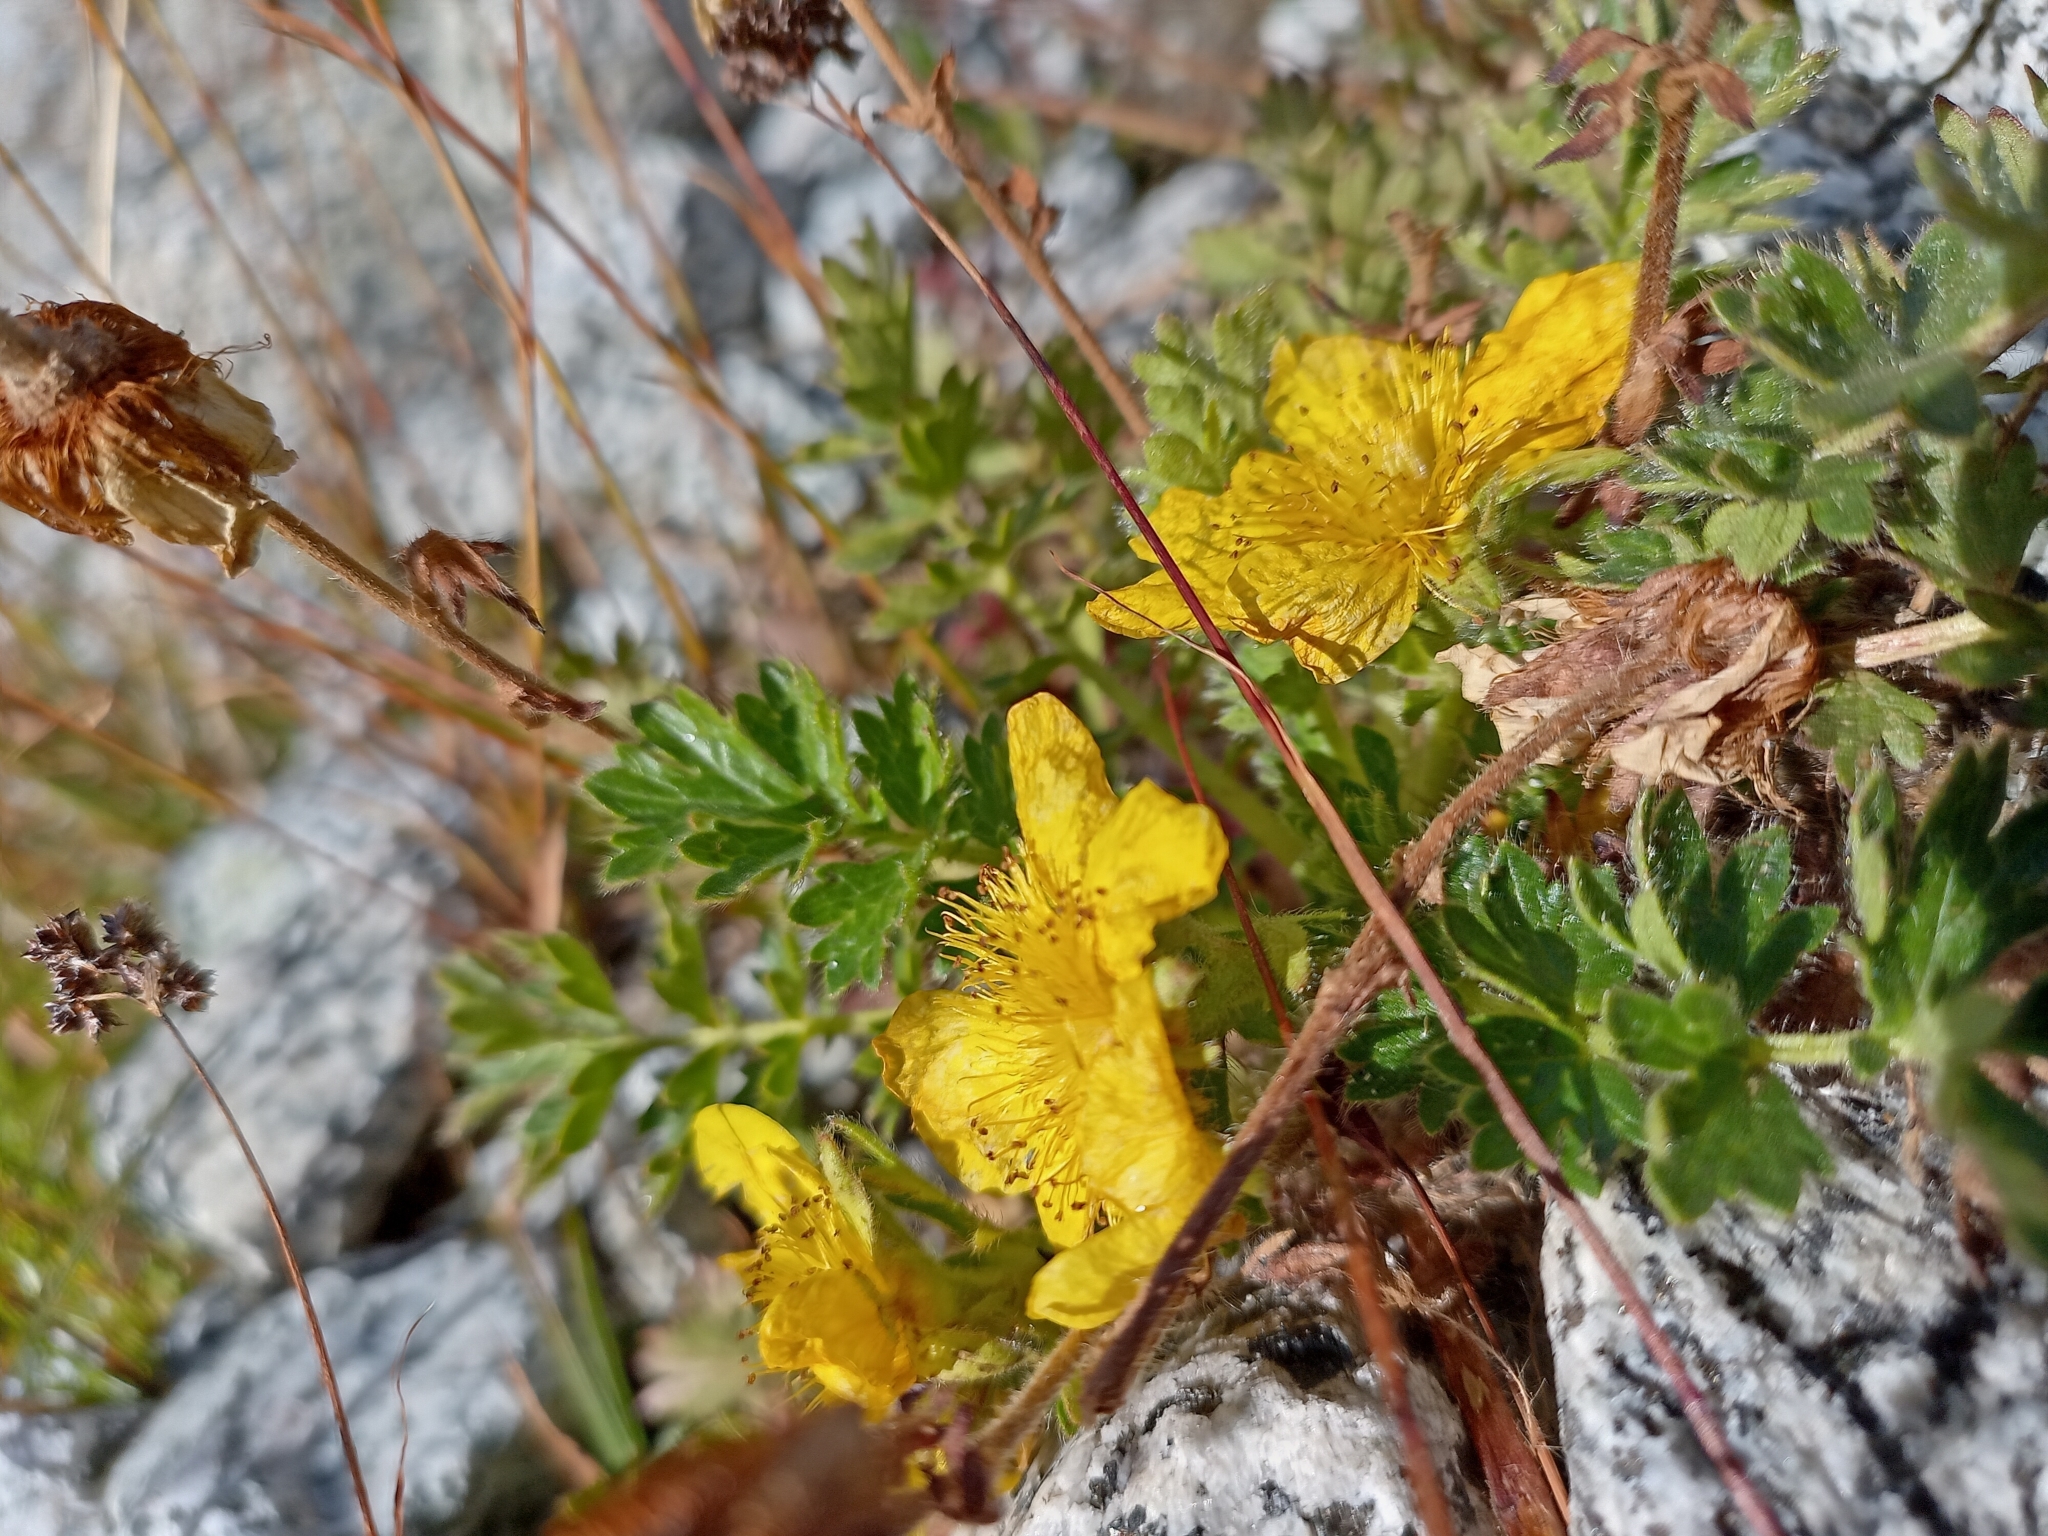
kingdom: Plantae
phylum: Tracheophyta
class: Magnoliopsida
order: Rosales
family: Rosaceae
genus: Geum
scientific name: Geum reptans
